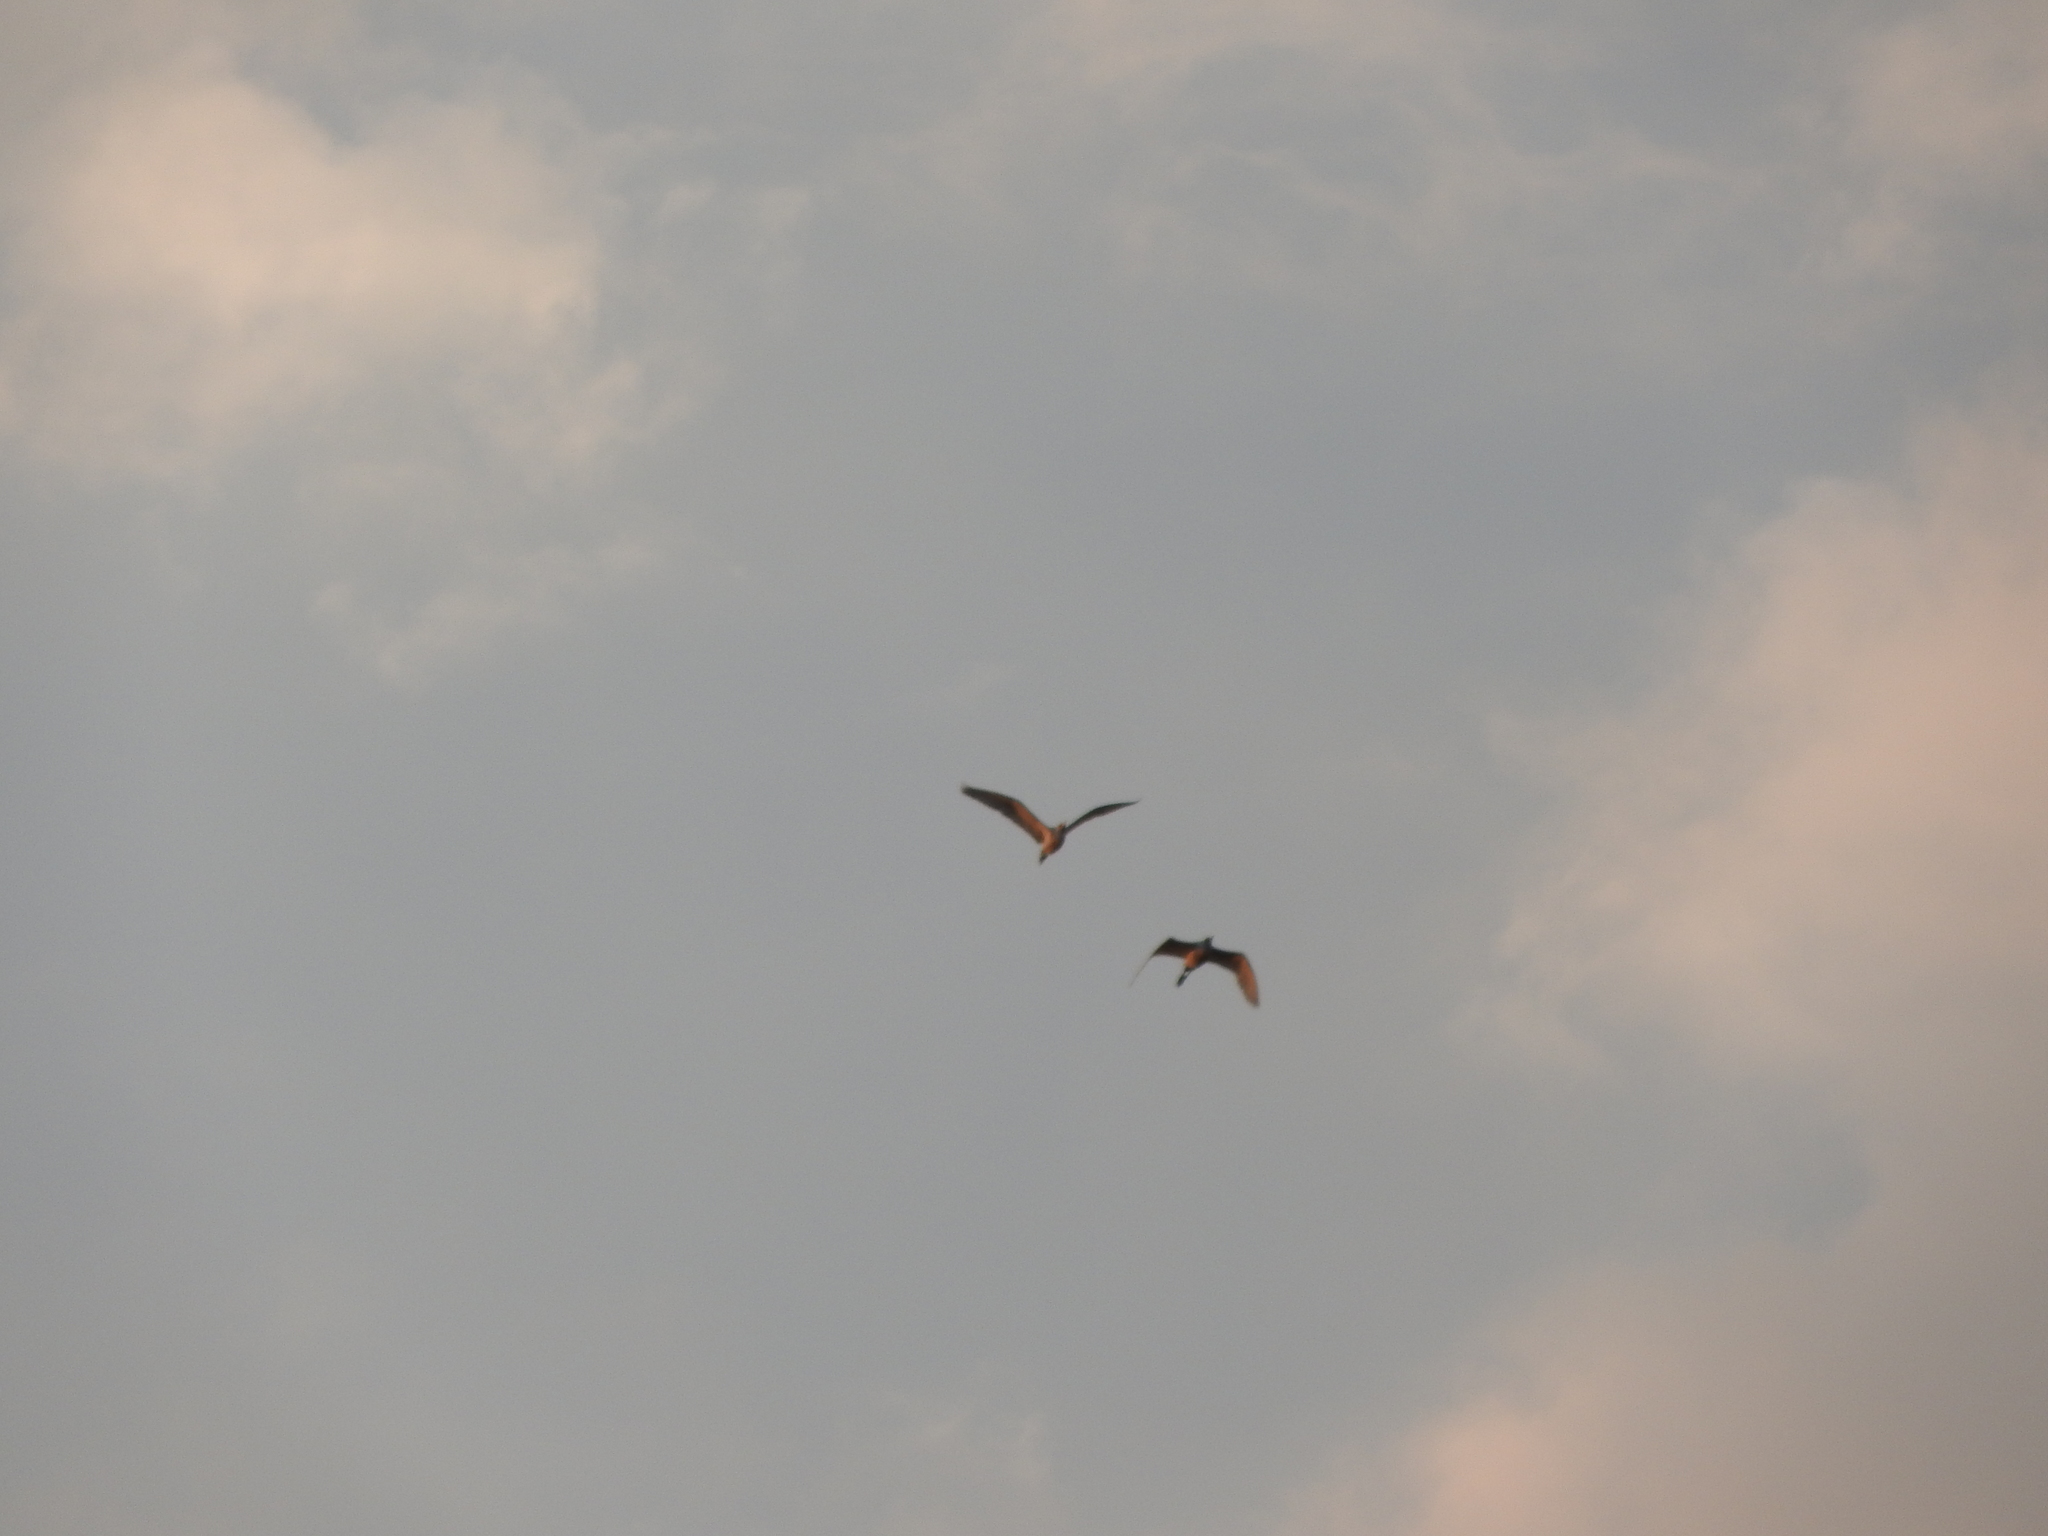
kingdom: Animalia
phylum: Chordata
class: Aves
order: Pelecaniformes
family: Ardeidae
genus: Bubulcus
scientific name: Bubulcus ibis
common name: Cattle egret
